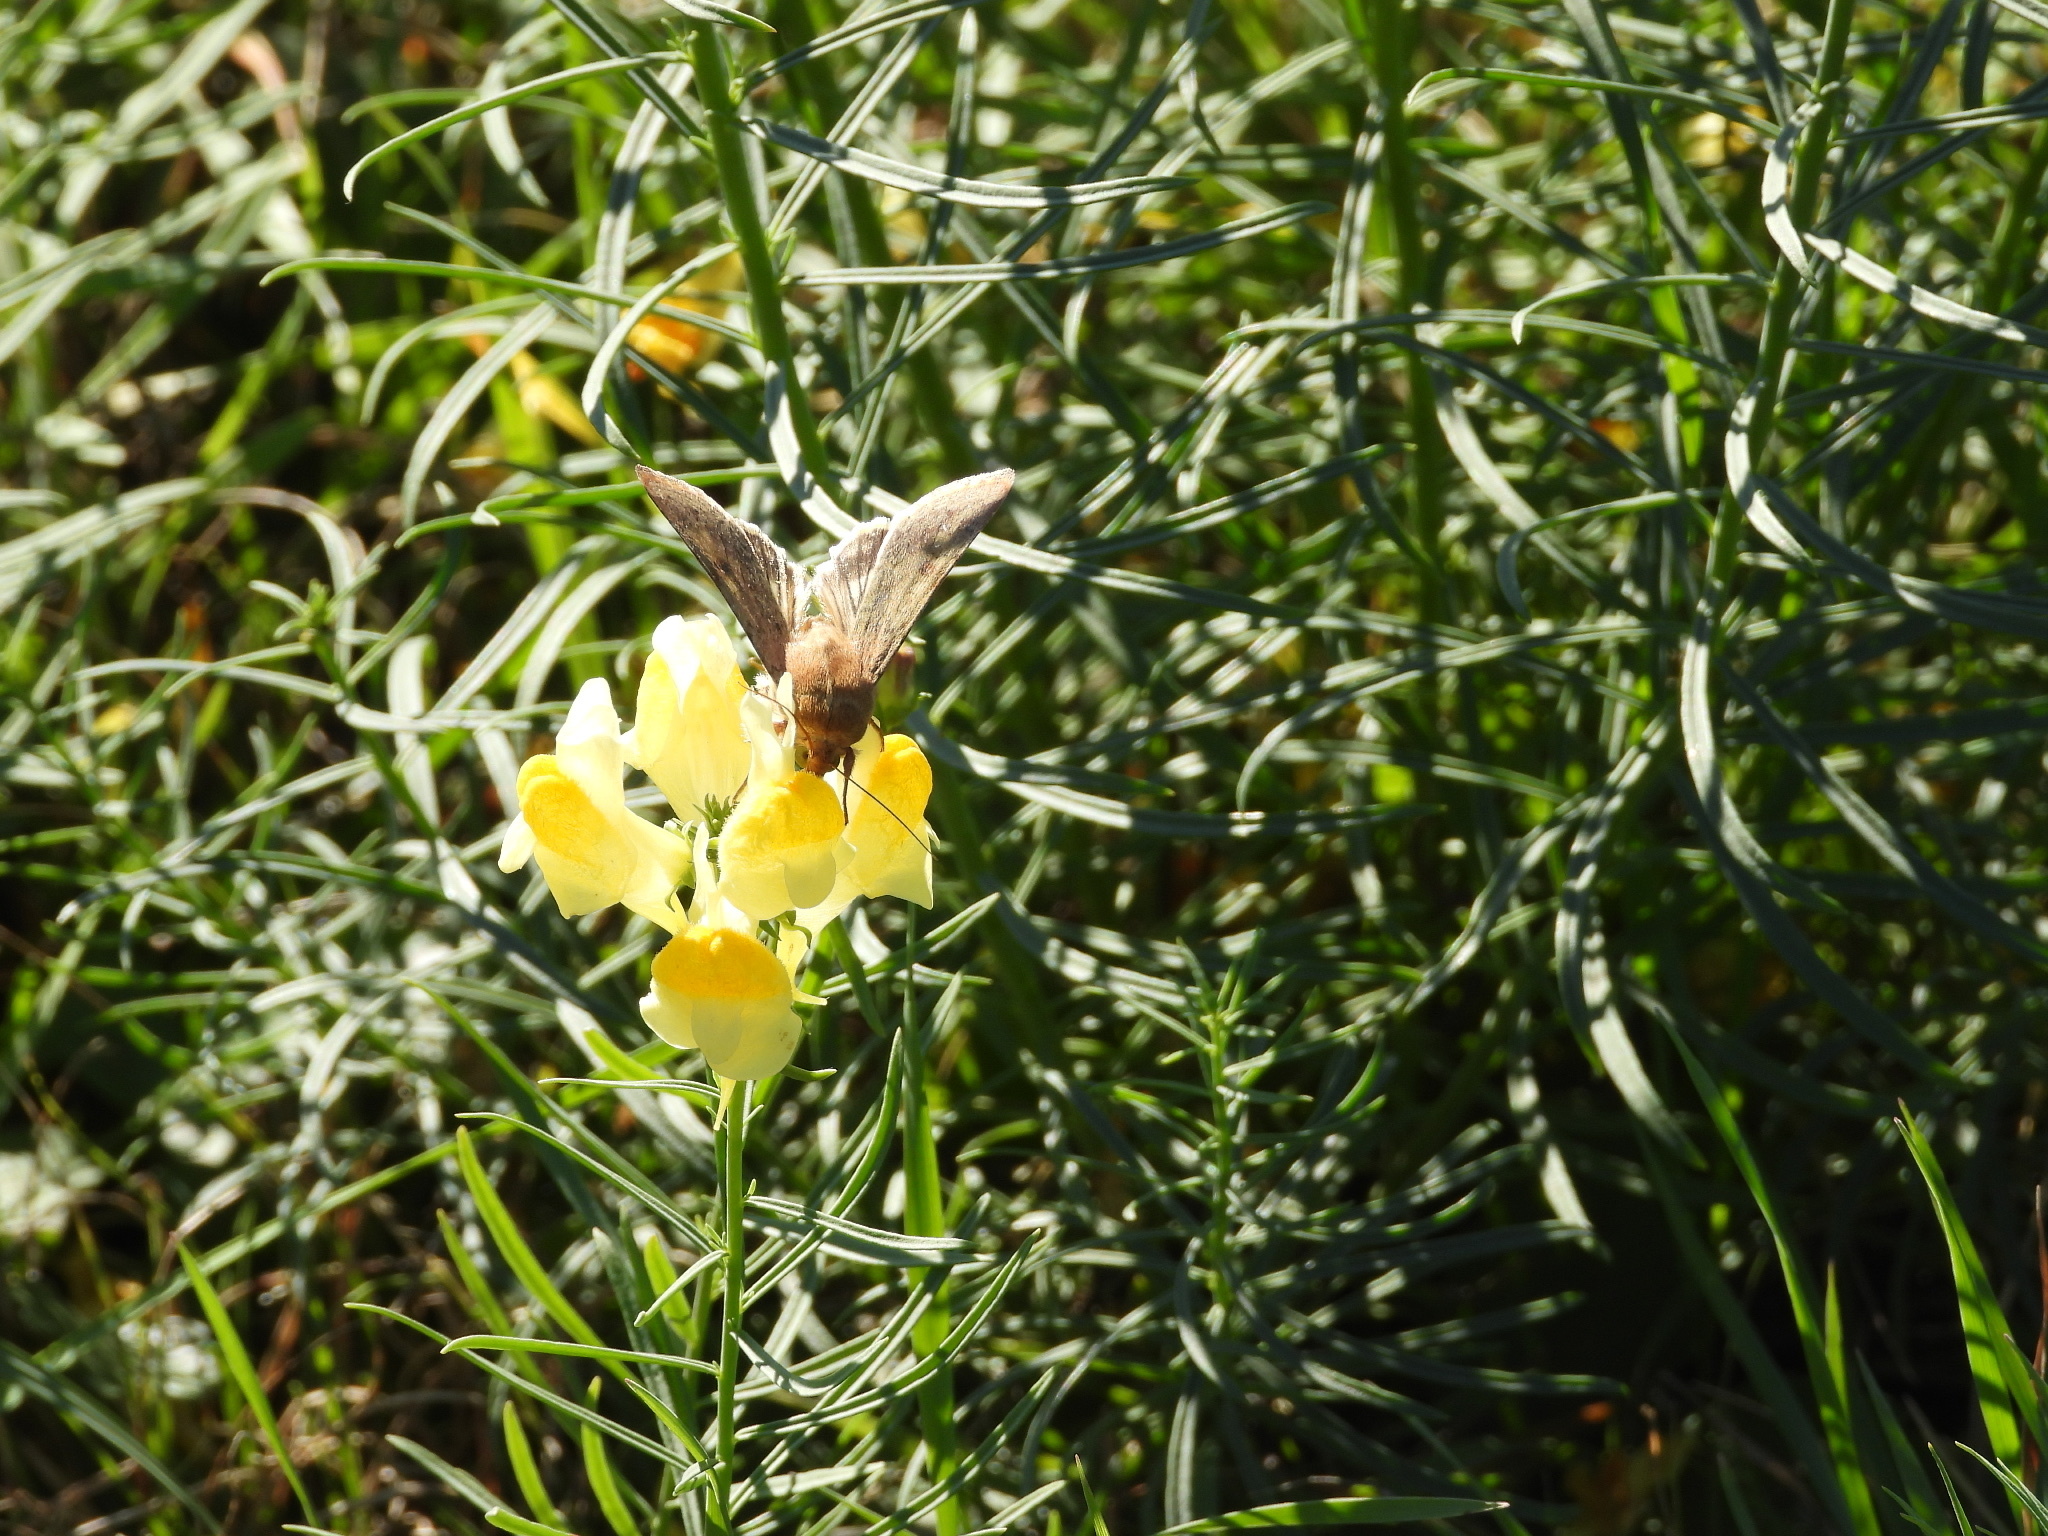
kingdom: Animalia
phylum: Arthropoda
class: Insecta
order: Lepidoptera
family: Noctuidae
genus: Helicoverpa
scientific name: Helicoverpa zea
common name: Bollworm
